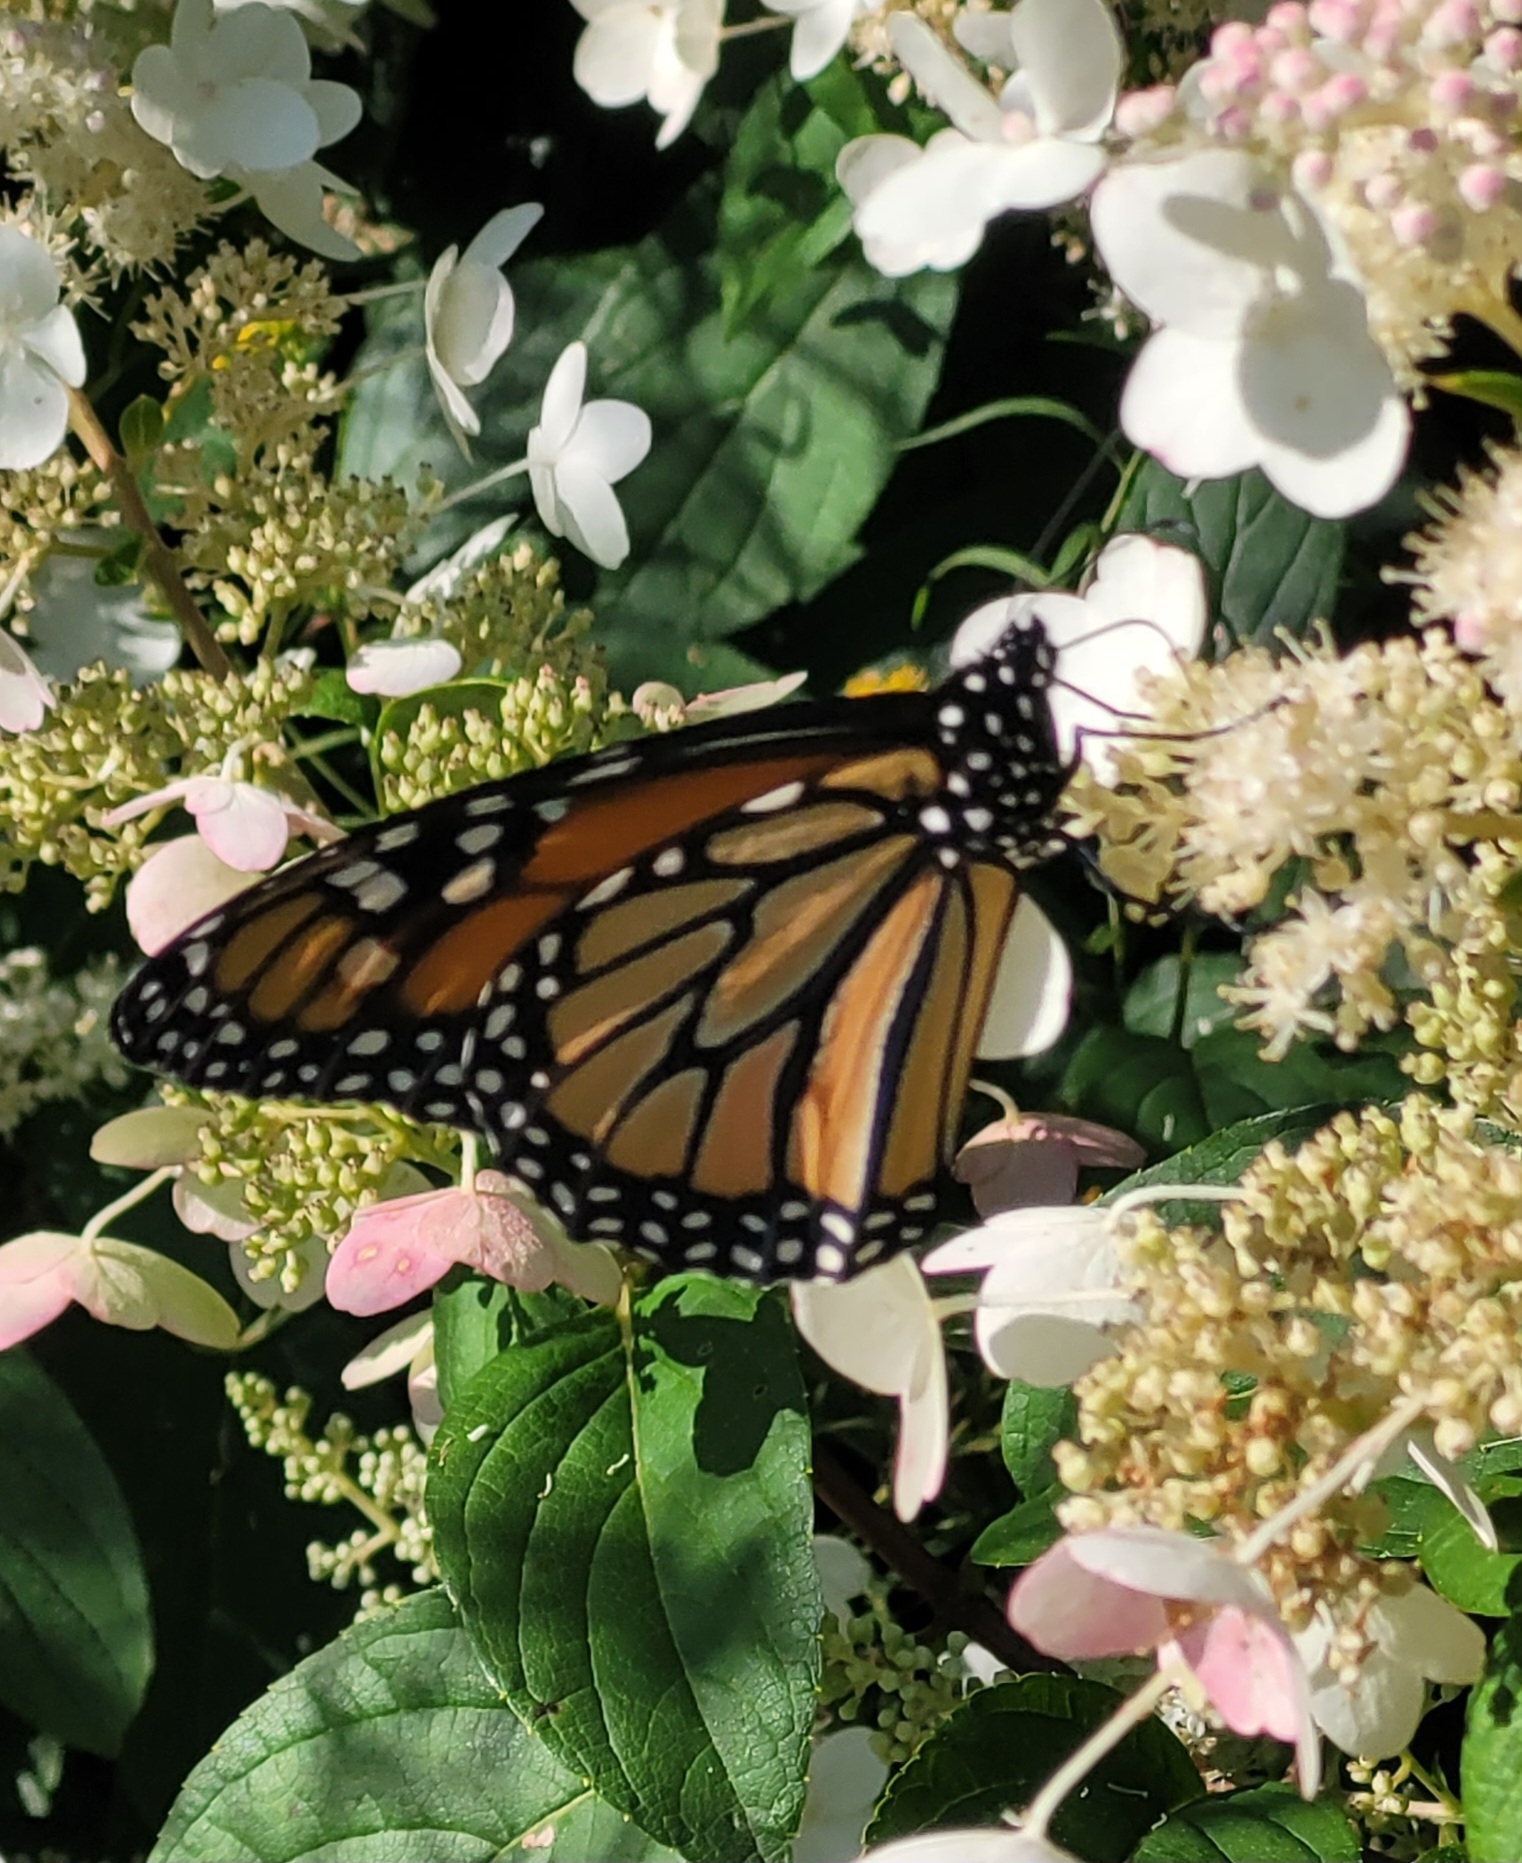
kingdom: Animalia
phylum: Arthropoda
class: Insecta
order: Lepidoptera
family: Nymphalidae
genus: Danaus
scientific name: Danaus plexippus
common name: Monarch
